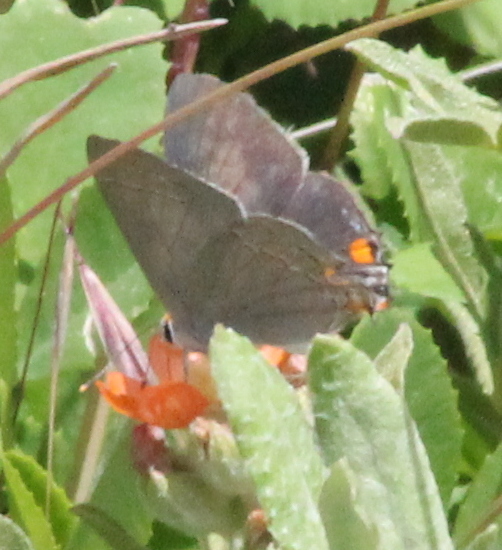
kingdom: Animalia
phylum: Arthropoda
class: Insecta
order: Lepidoptera
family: Lycaenidae
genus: Strymon
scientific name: Strymon melinus
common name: Gray hairstreak
